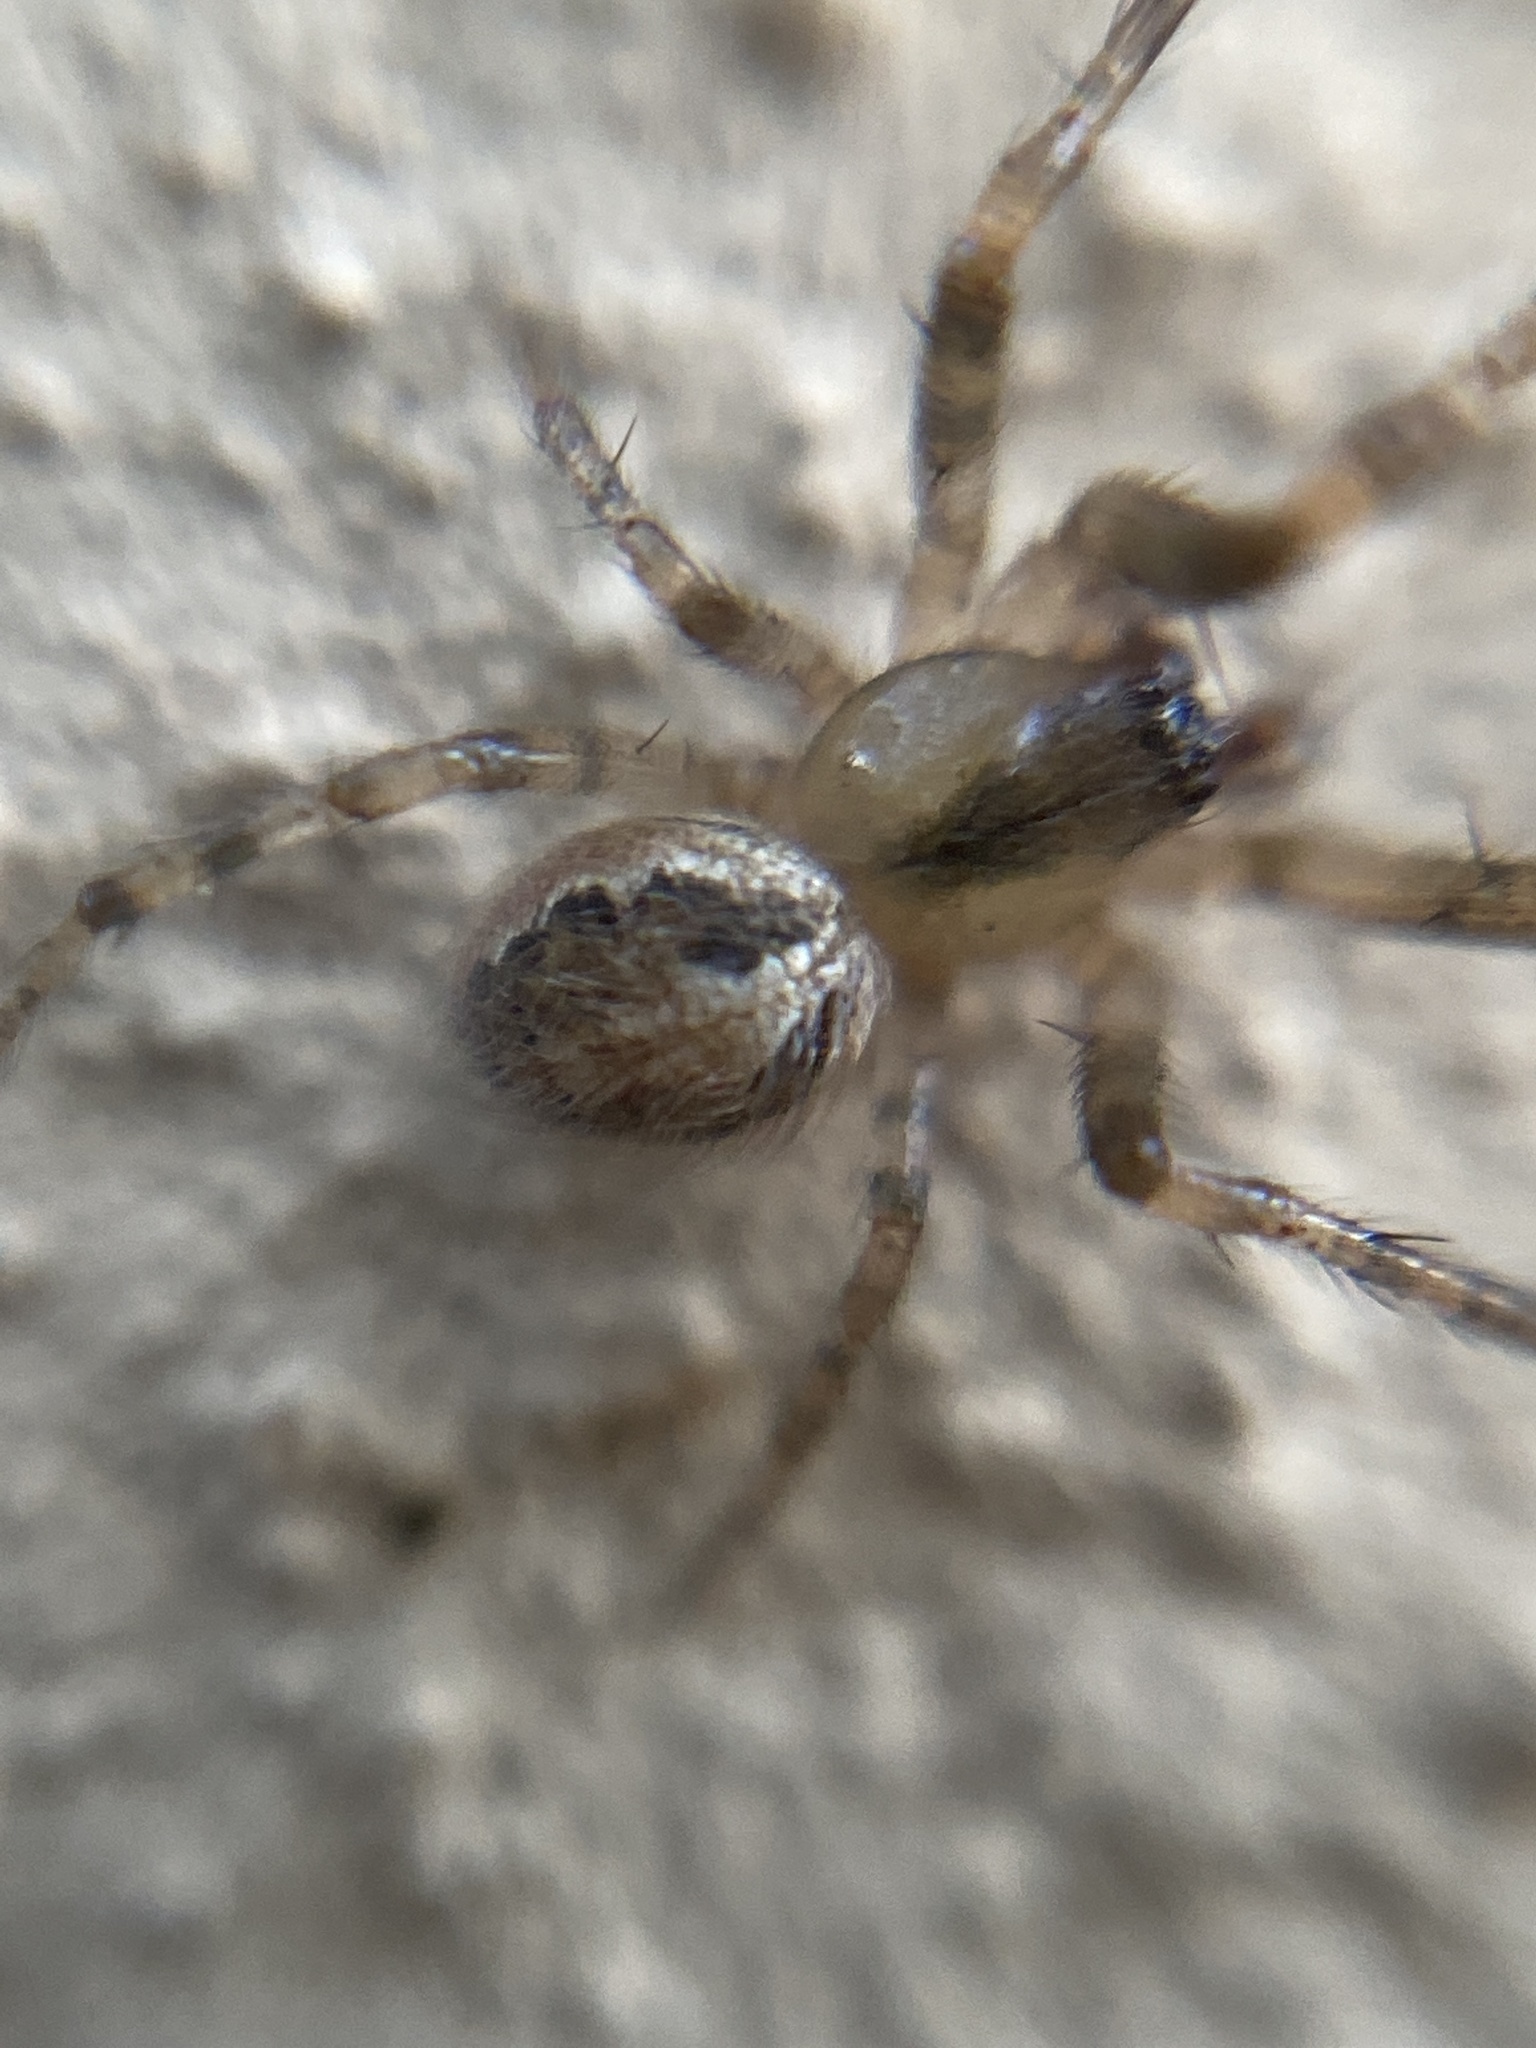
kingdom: Animalia
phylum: Arthropoda
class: Arachnida
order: Araneae
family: Araneidae
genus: Zygiella
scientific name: Zygiella x-notata
